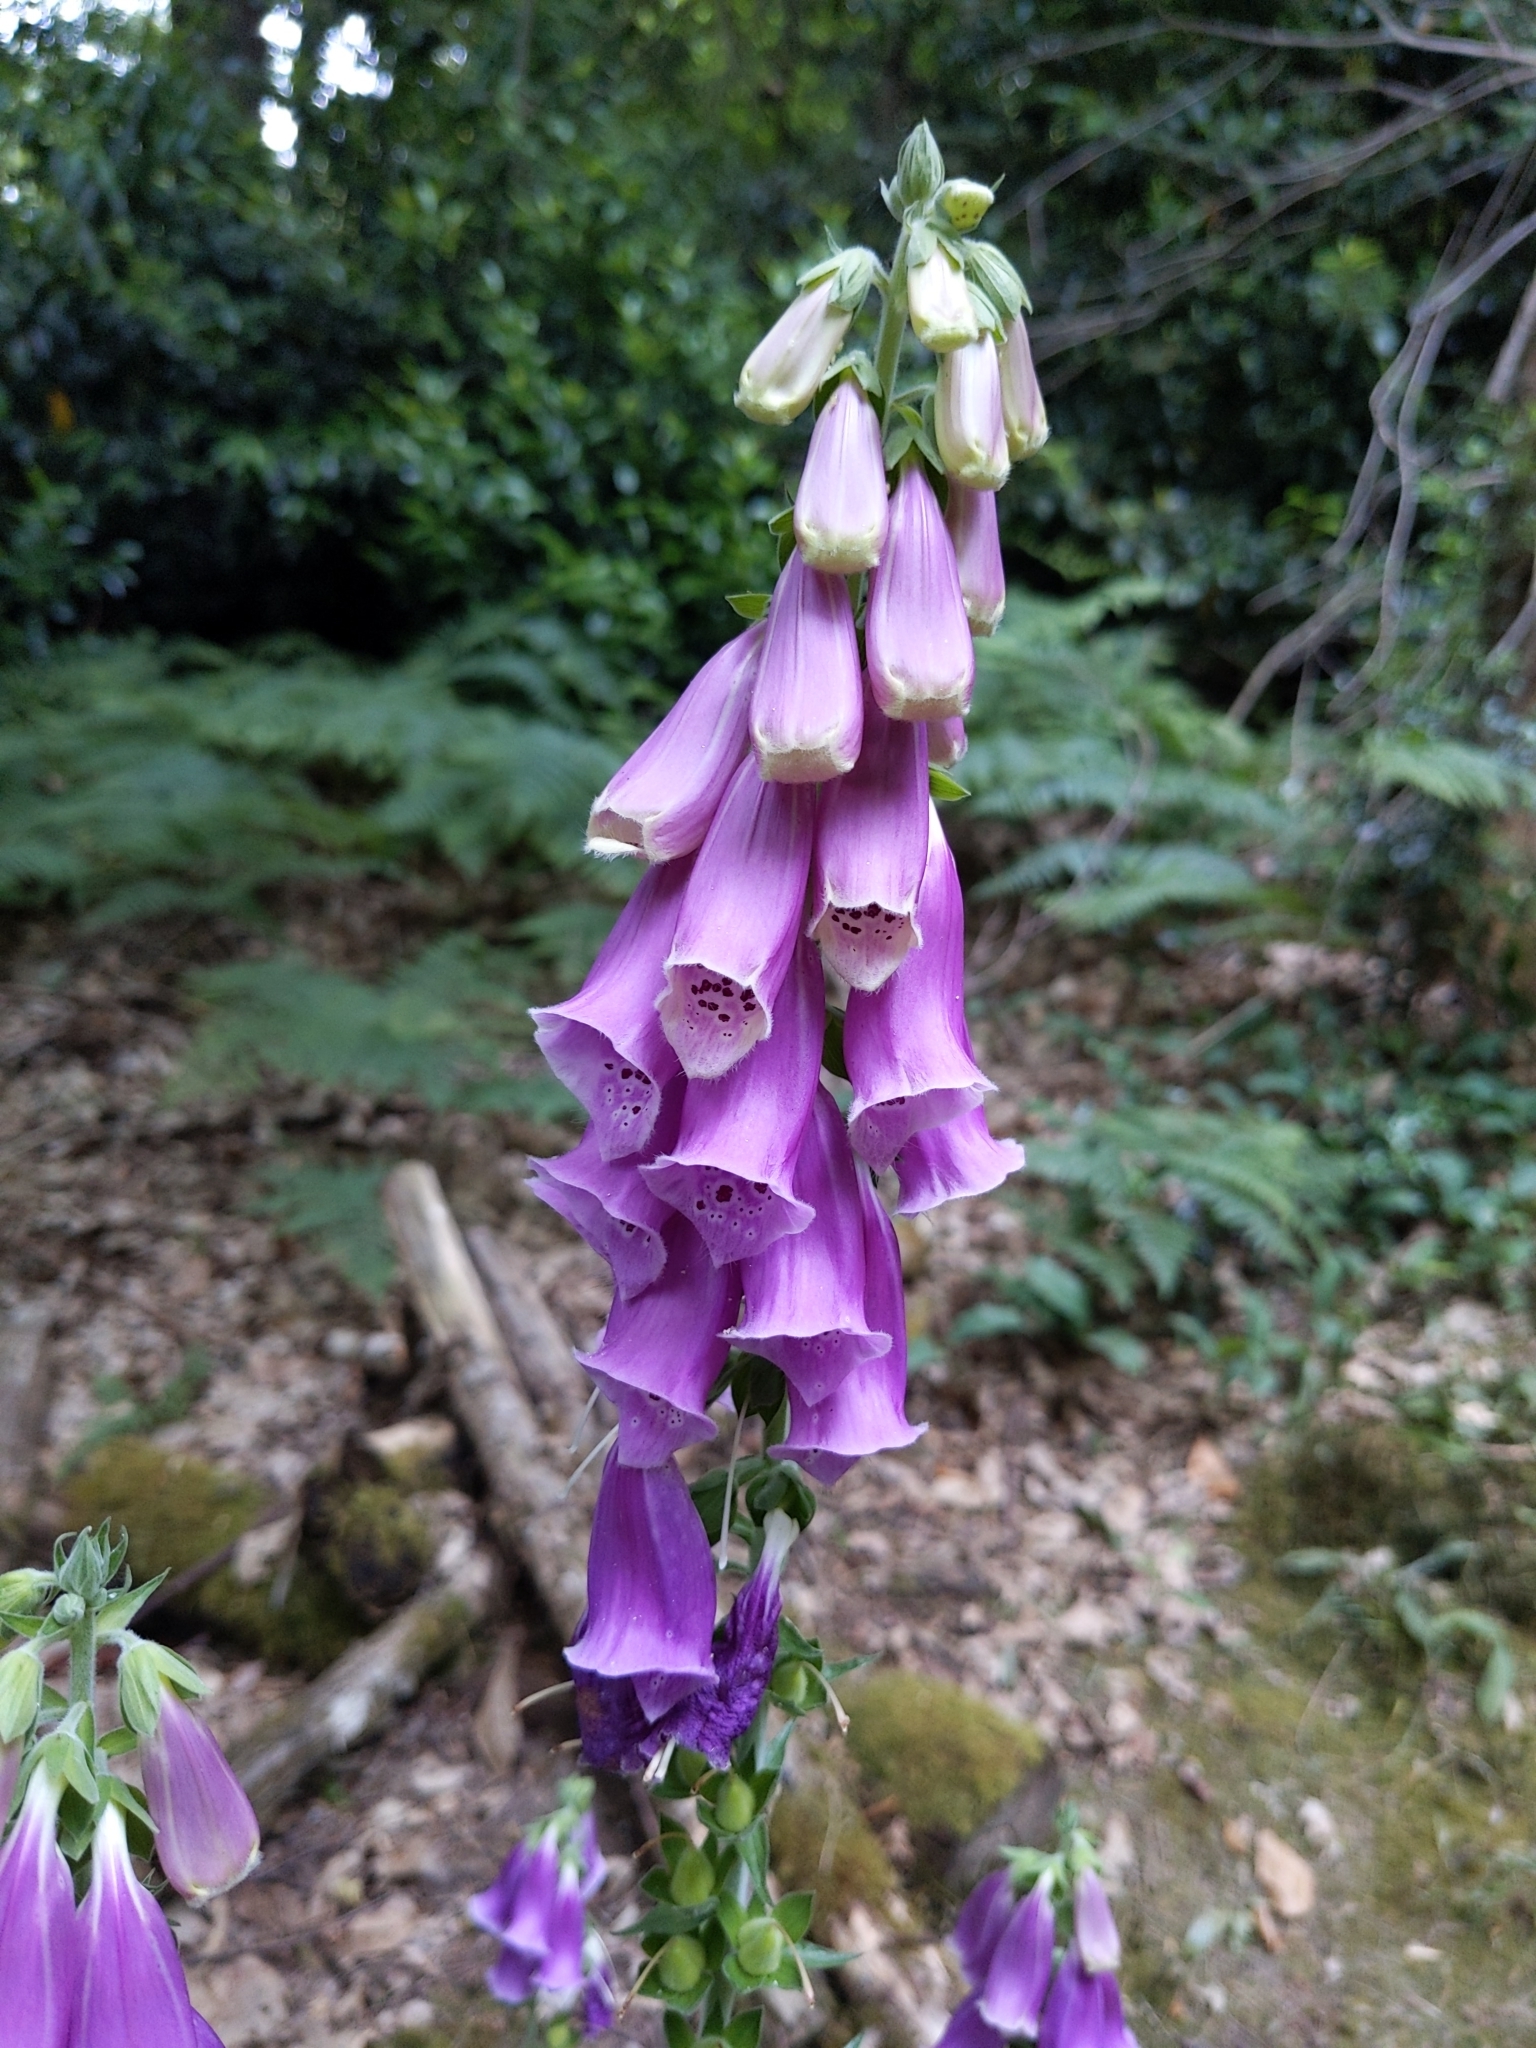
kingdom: Plantae
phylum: Tracheophyta
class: Magnoliopsida
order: Lamiales
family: Plantaginaceae
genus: Digitalis
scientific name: Digitalis purpurea
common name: Foxglove
